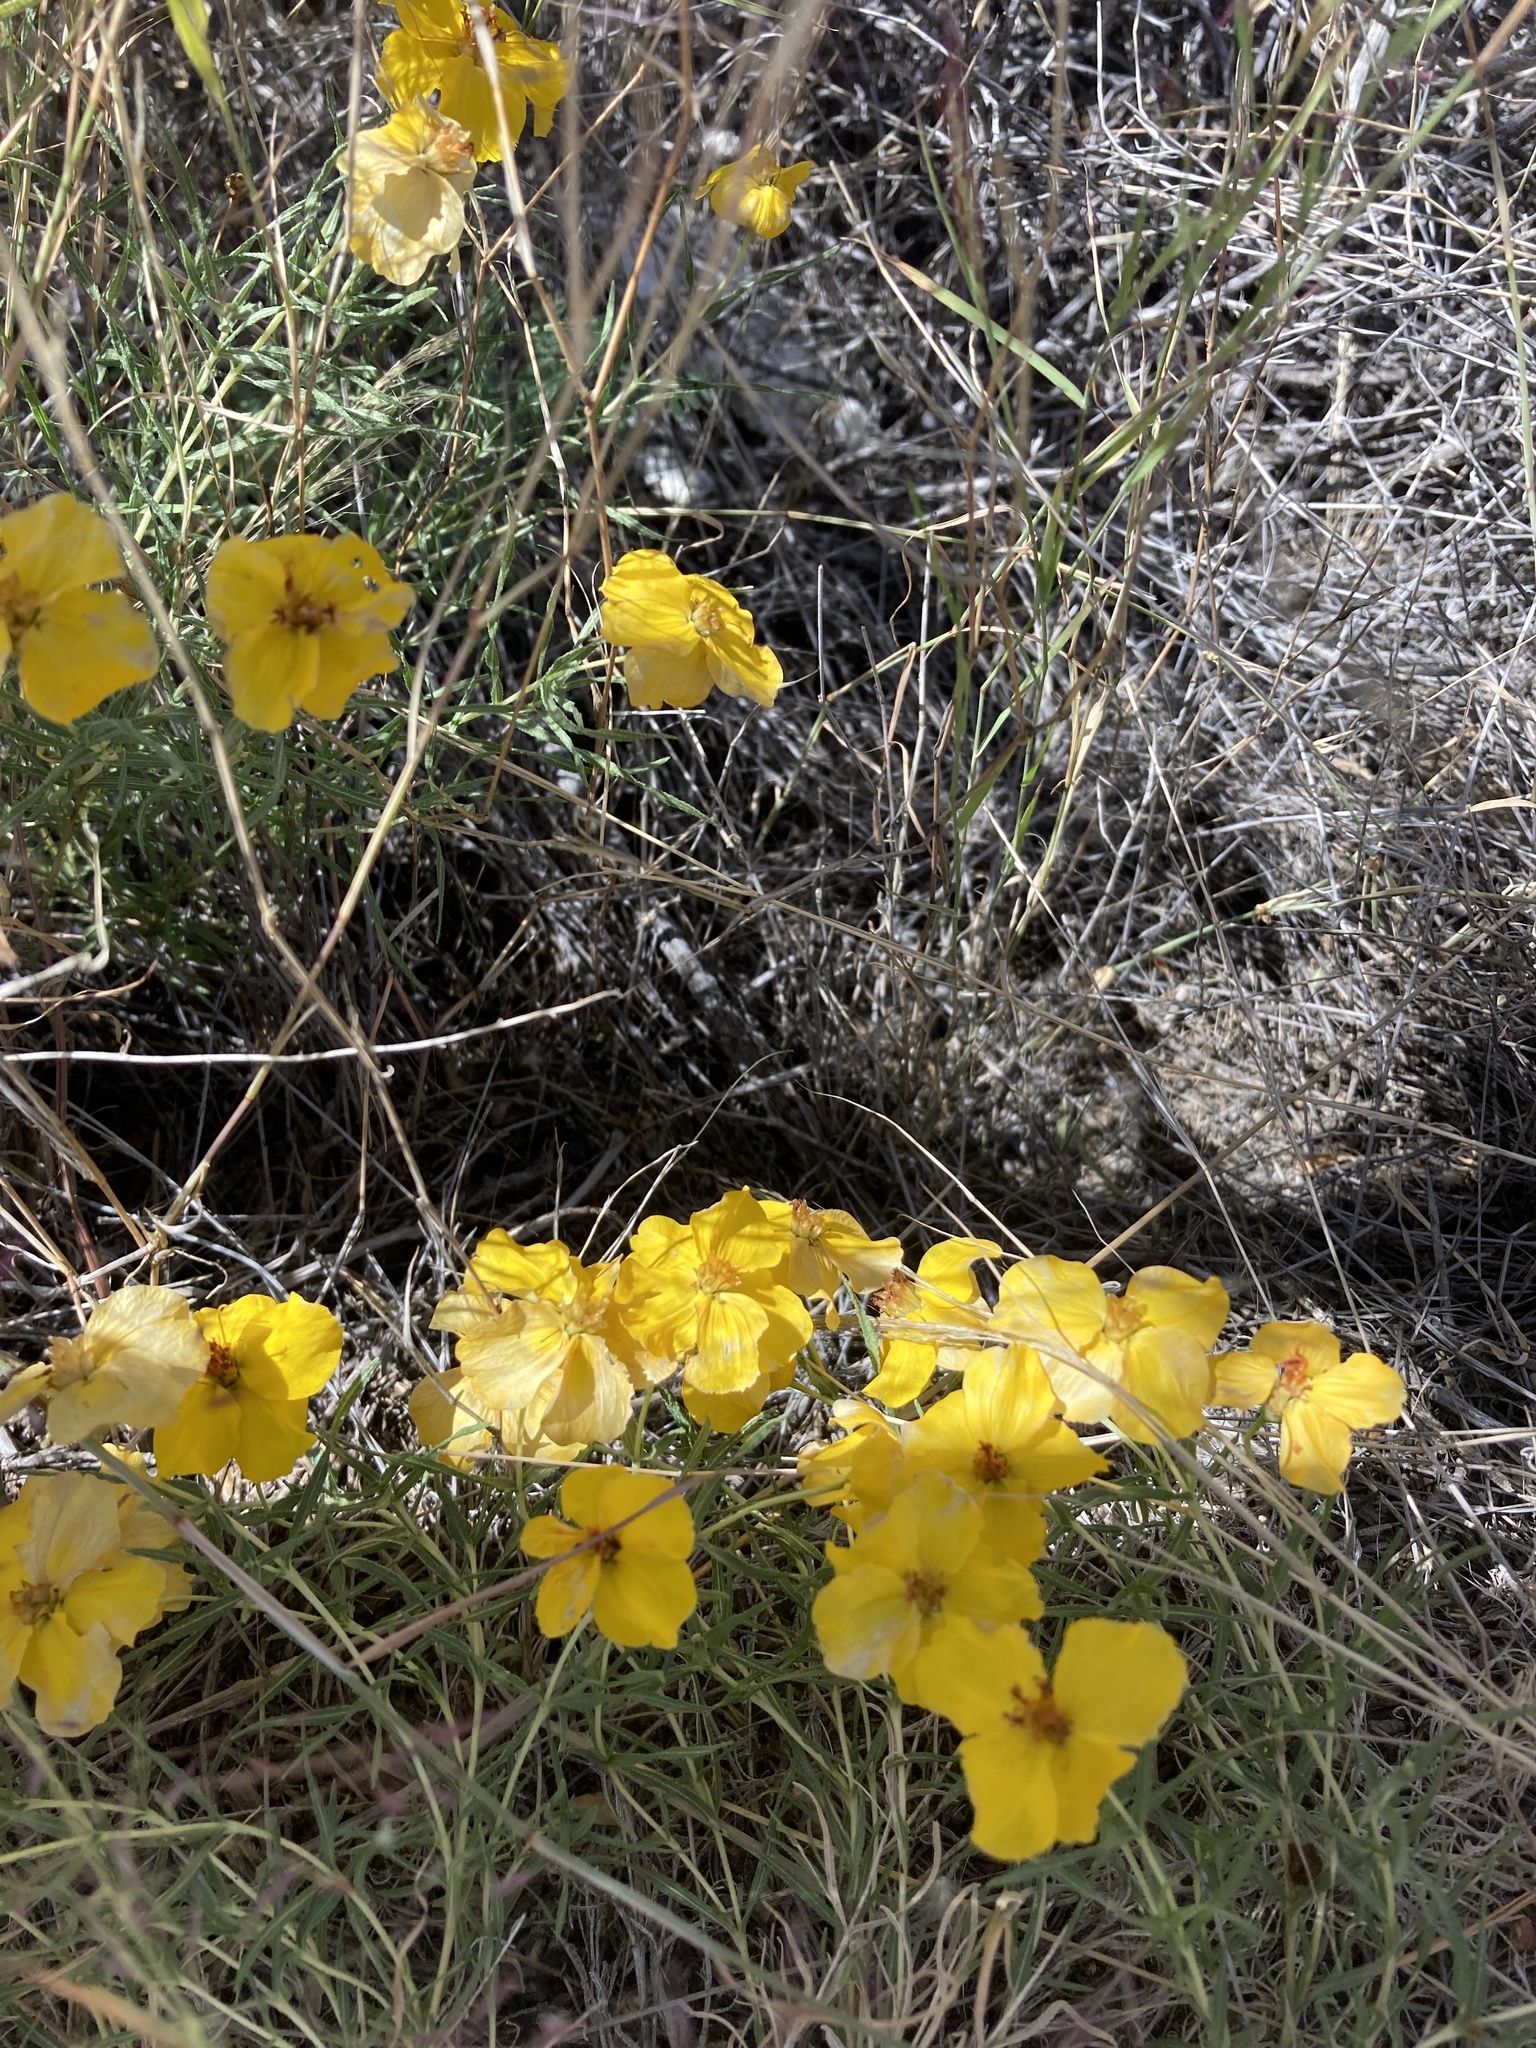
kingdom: Plantae
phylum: Tracheophyta
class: Magnoliopsida
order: Asterales
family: Asteraceae
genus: Zinnia
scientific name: Zinnia grandiflora
